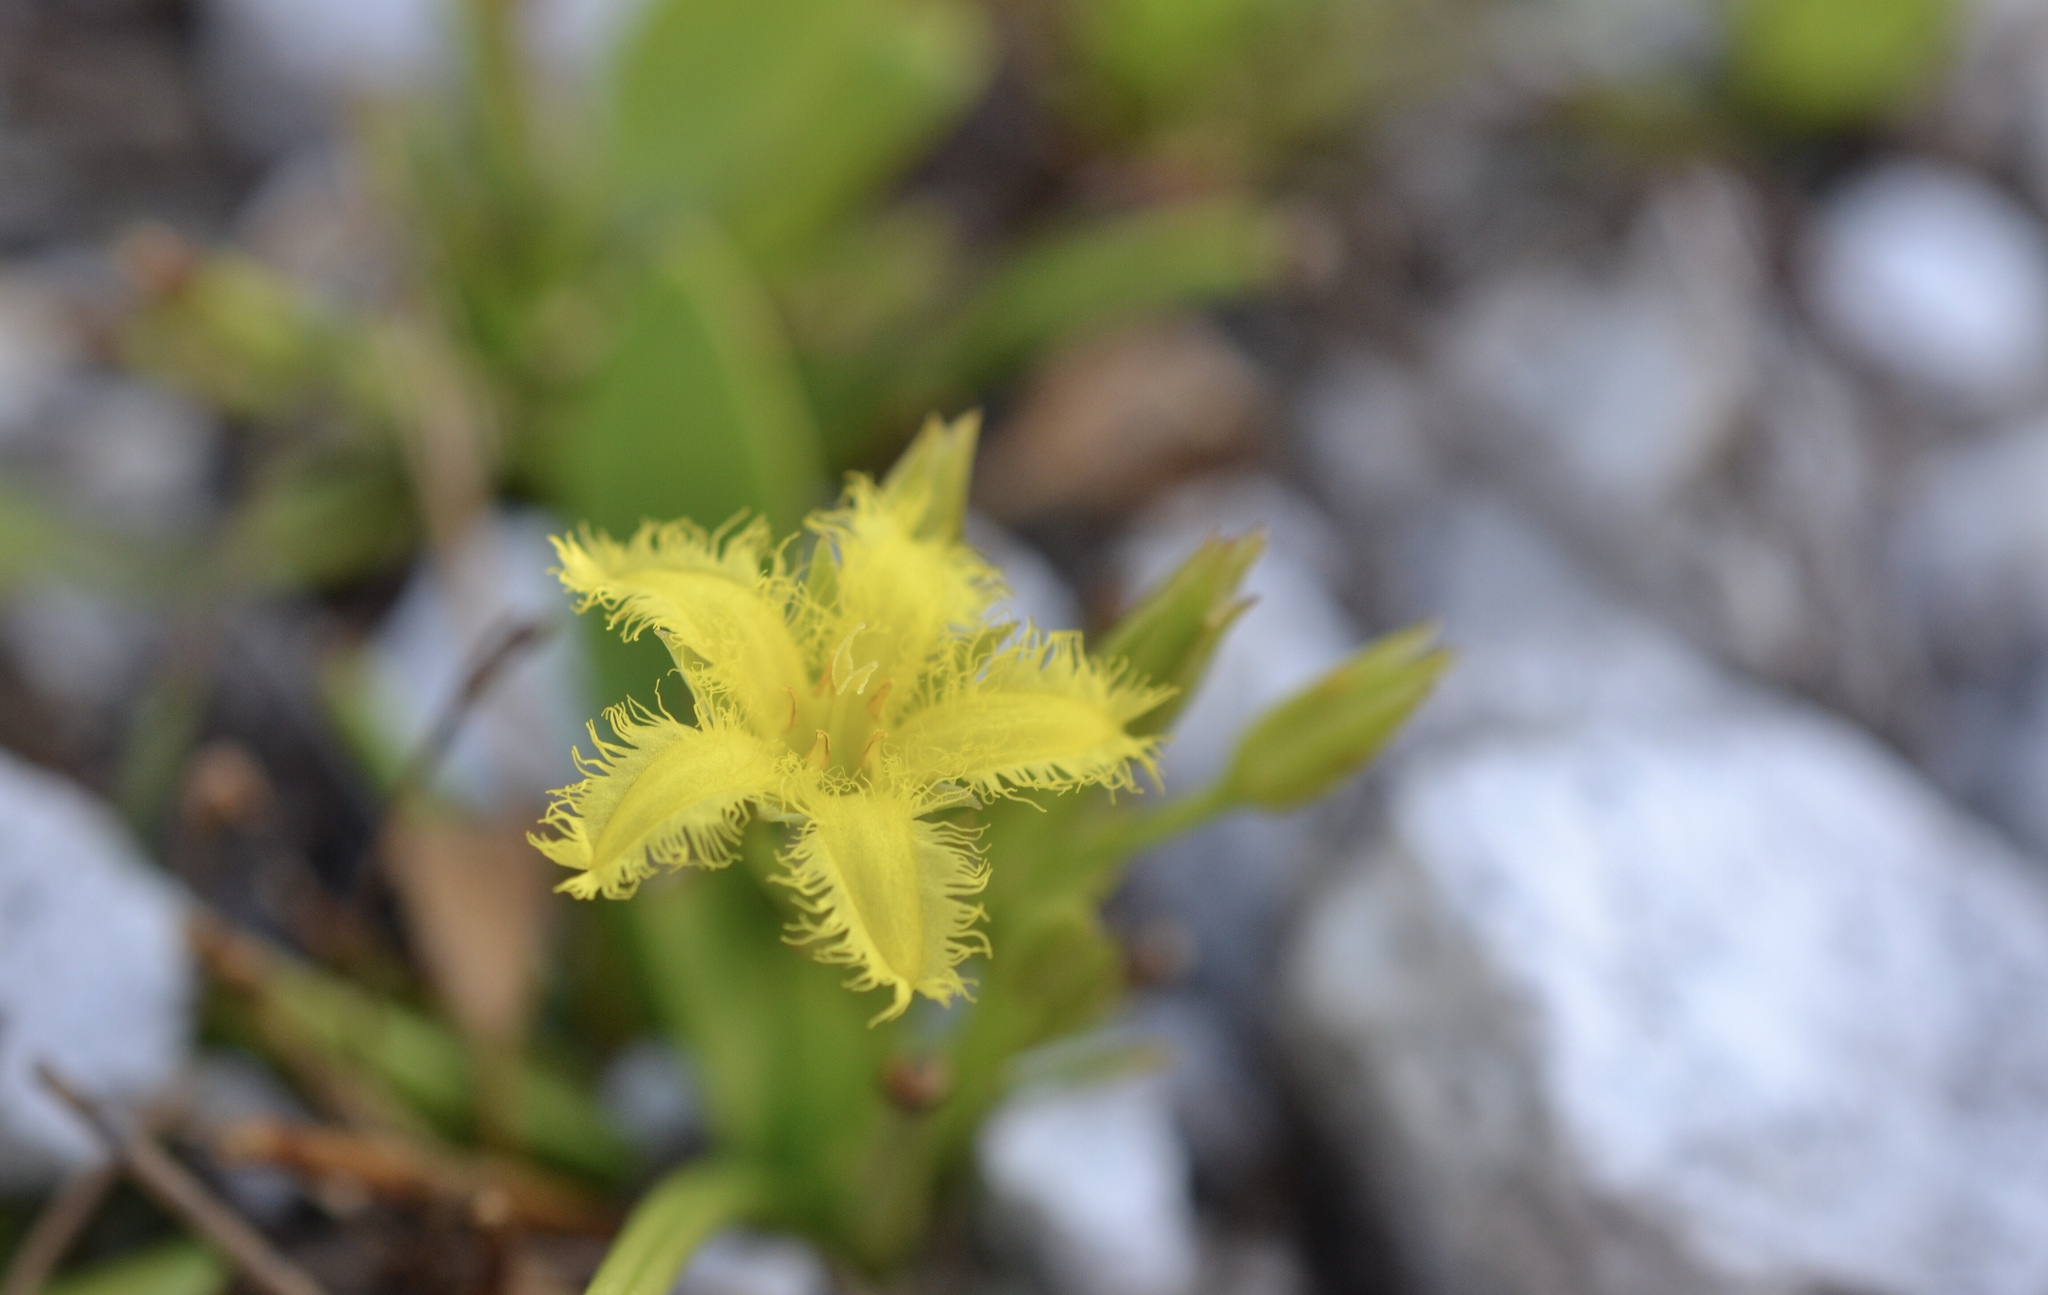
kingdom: Plantae
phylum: Tracheophyta
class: Magnoliopsida
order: Asterales
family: Menyanthaceae
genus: Villarsia
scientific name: Villarsia manningiana
